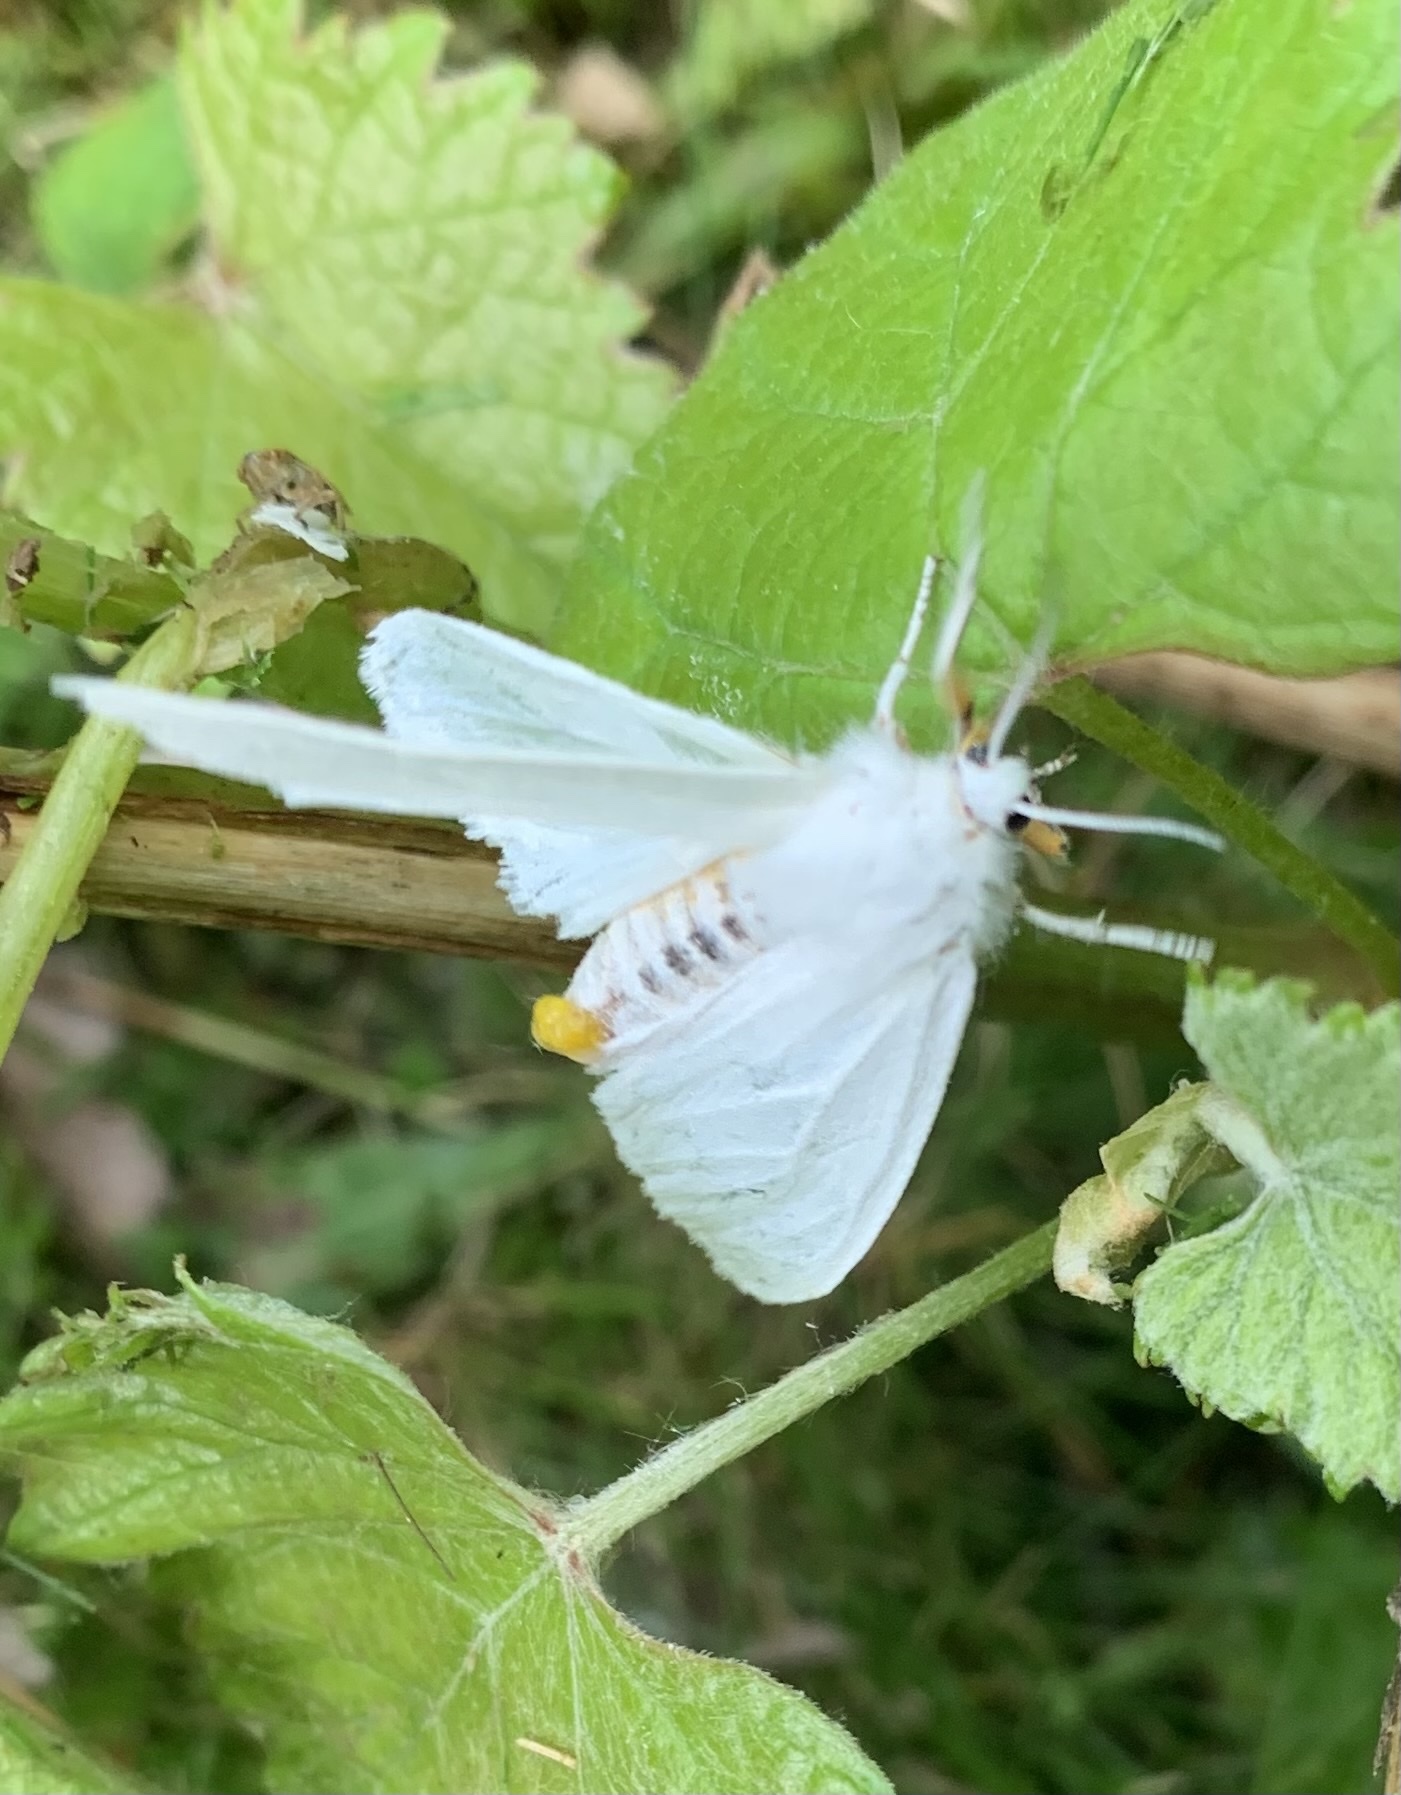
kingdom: Animalia
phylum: Arthropoda
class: Insecta
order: Lepidoptera
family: Erebidae
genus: Spilosoma
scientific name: Spilosoma virginica
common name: Virginia tiger moth
